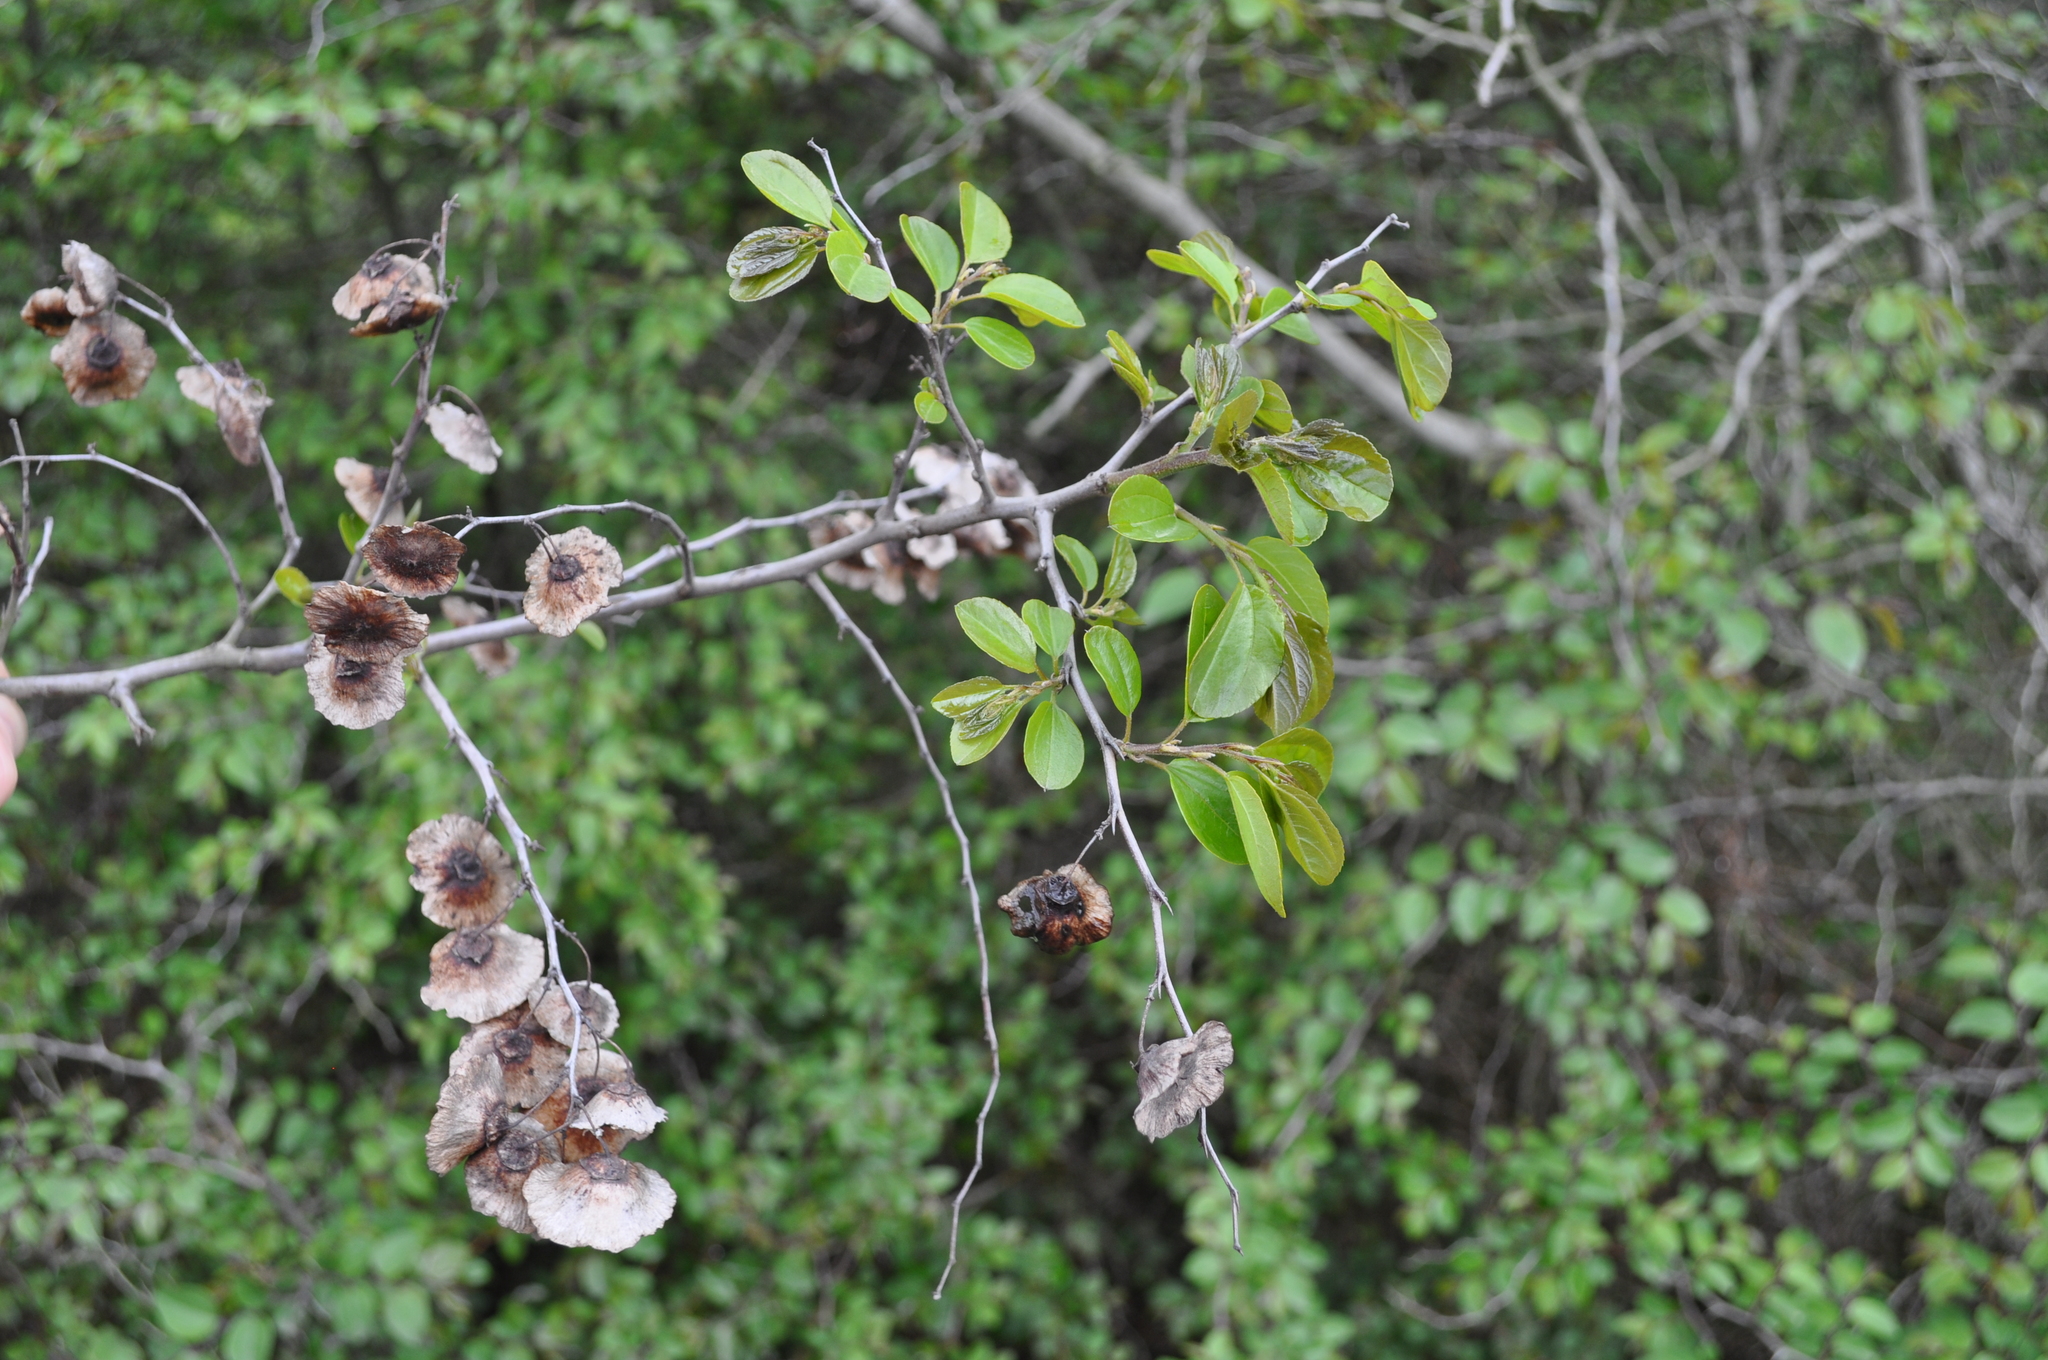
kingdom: Plantae
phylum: Tracheophyta
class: Magnoliopsida
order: Rosales
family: Rhamnaceae
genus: Paliurus
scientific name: Paliurus spina-christi
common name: Jeruselem thorn
